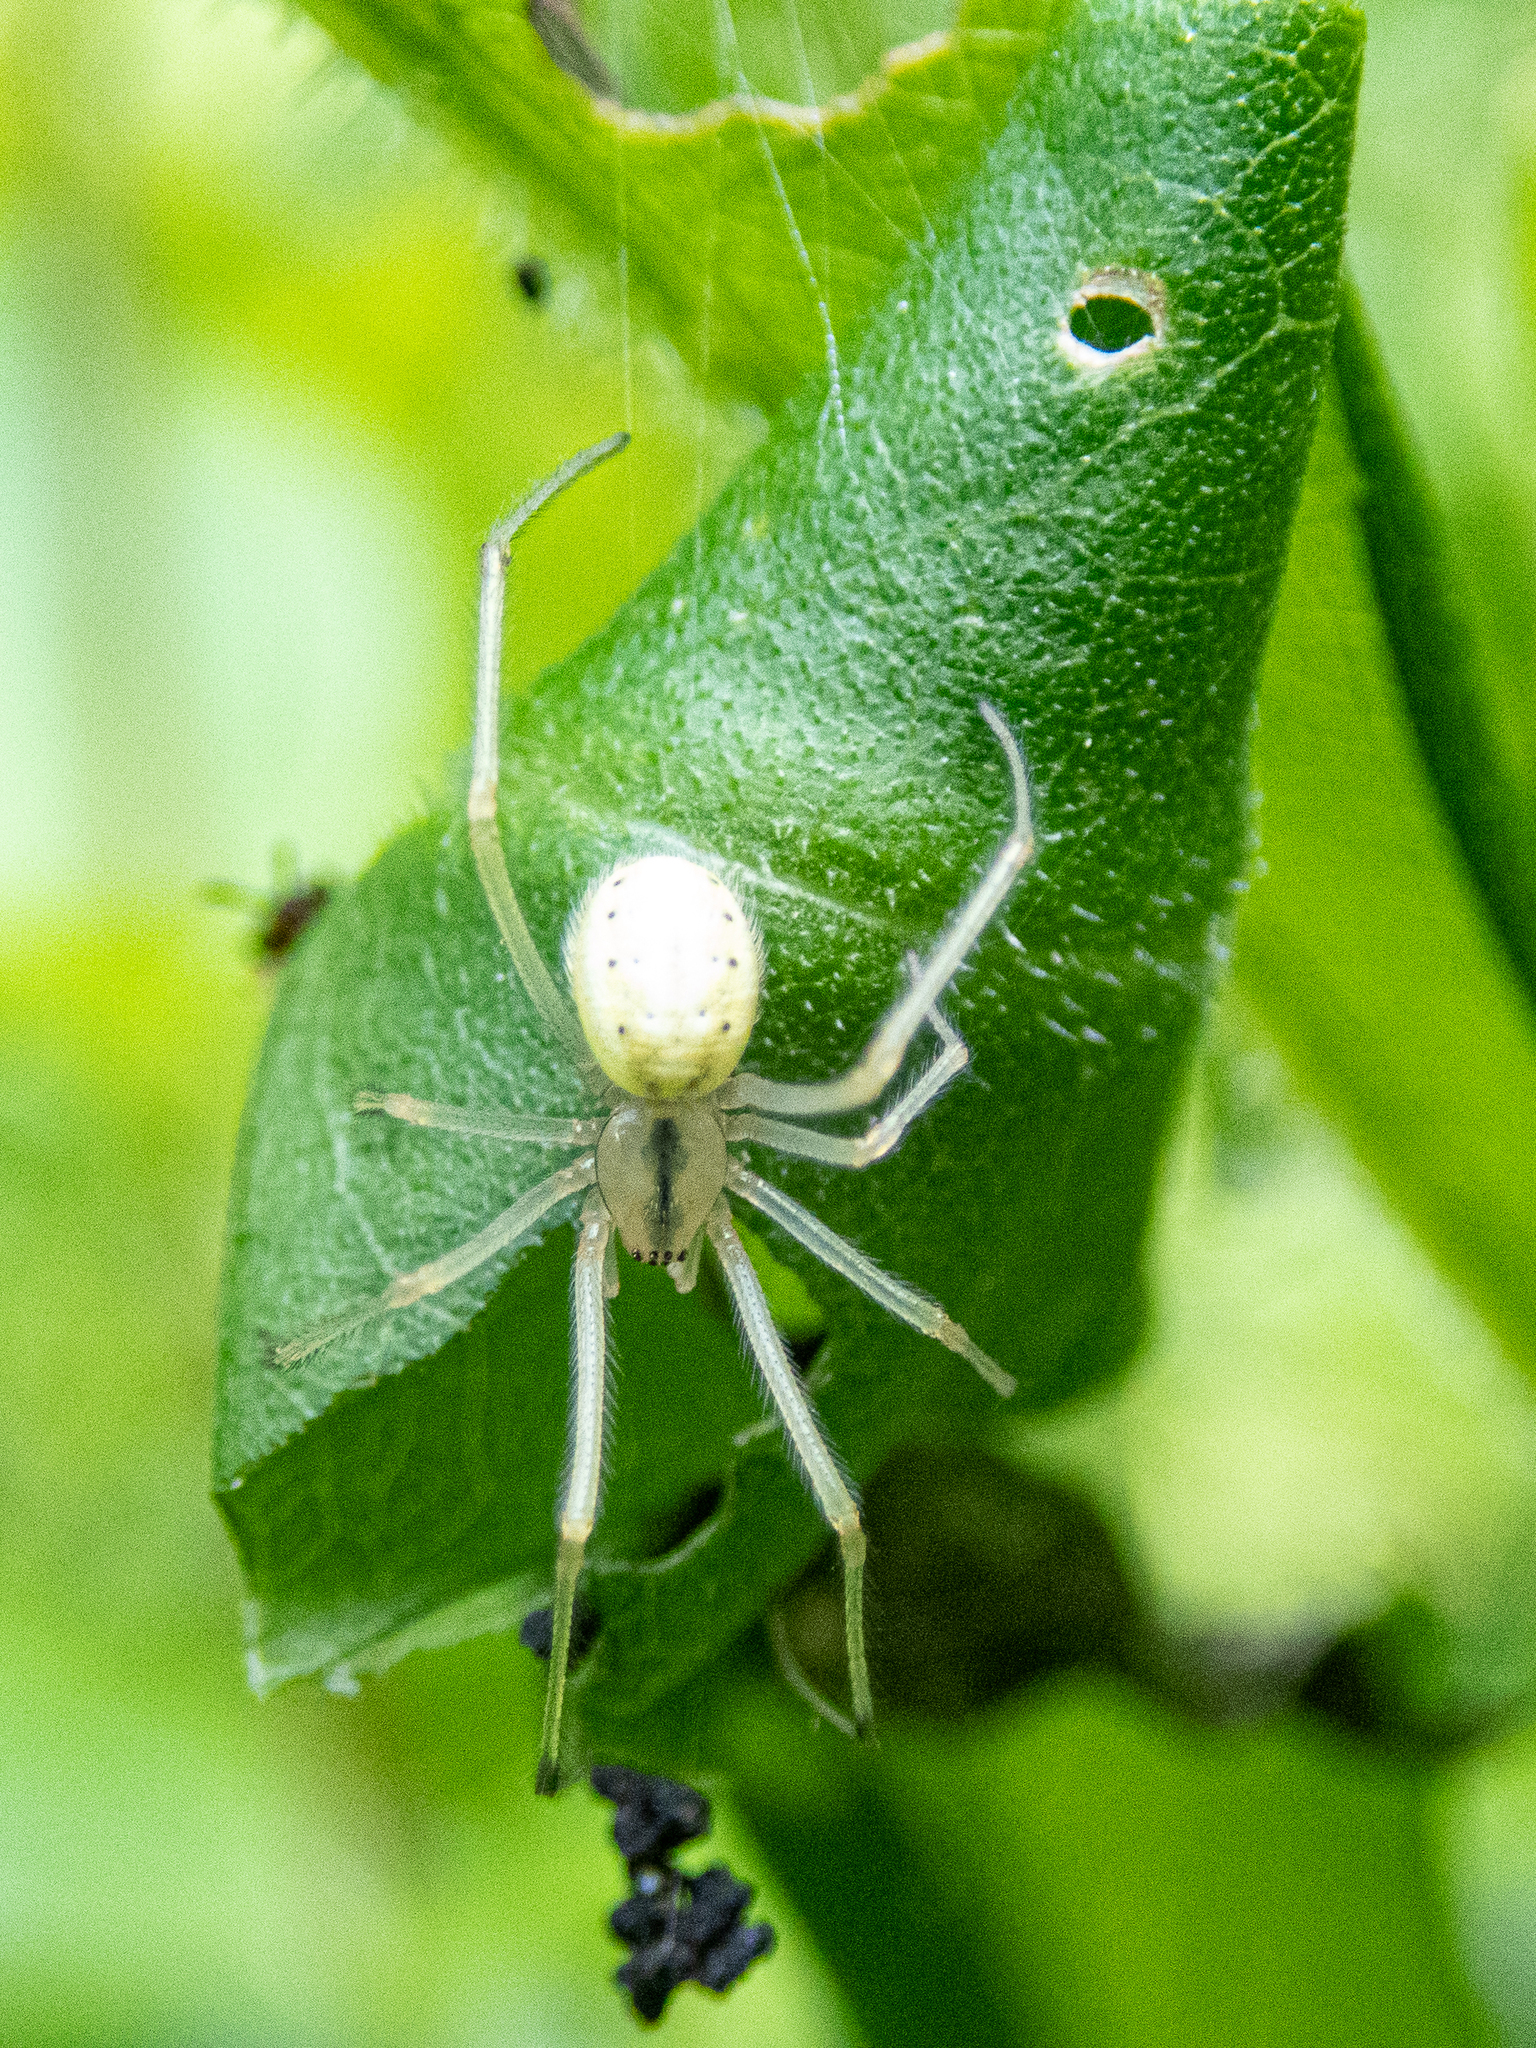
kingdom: Animalia
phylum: Arthropoda
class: Arachnida
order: Araneae
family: Theridiidae
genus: Enoplognatha
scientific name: Enoplognatha ovata
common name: Common candy-striped spider
